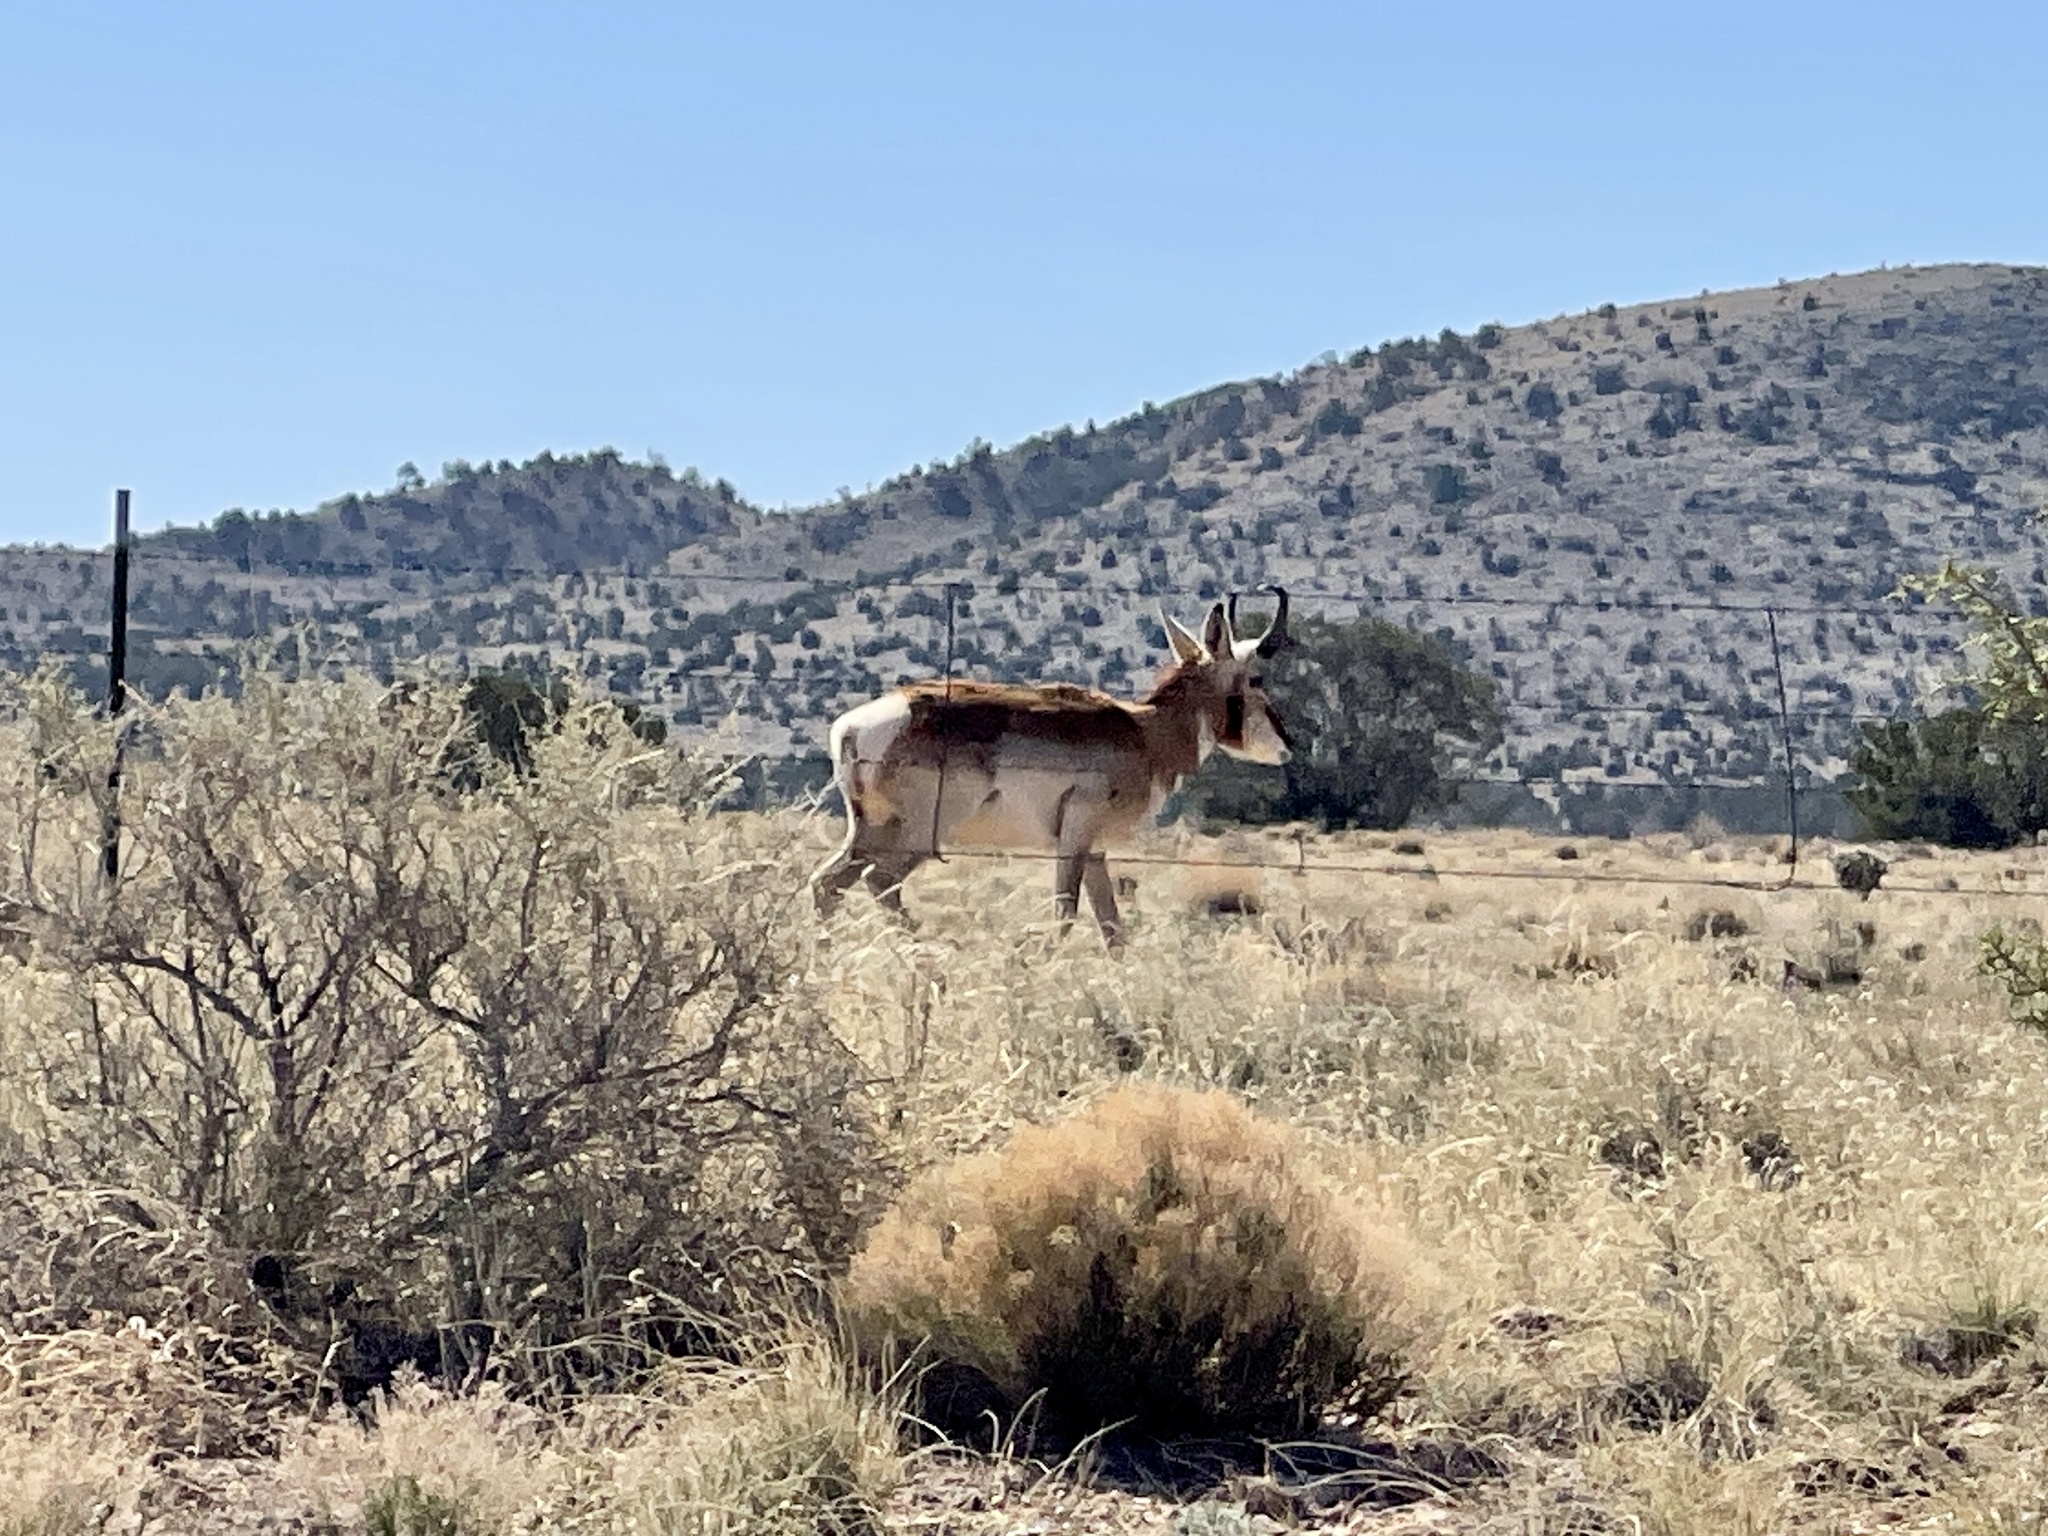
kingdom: Animalia
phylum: Chordata
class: Mammalia
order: Artiodactyla
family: Antilocapridae
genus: Antilocapra
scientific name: Antilocapra americana
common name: Pronghorn
